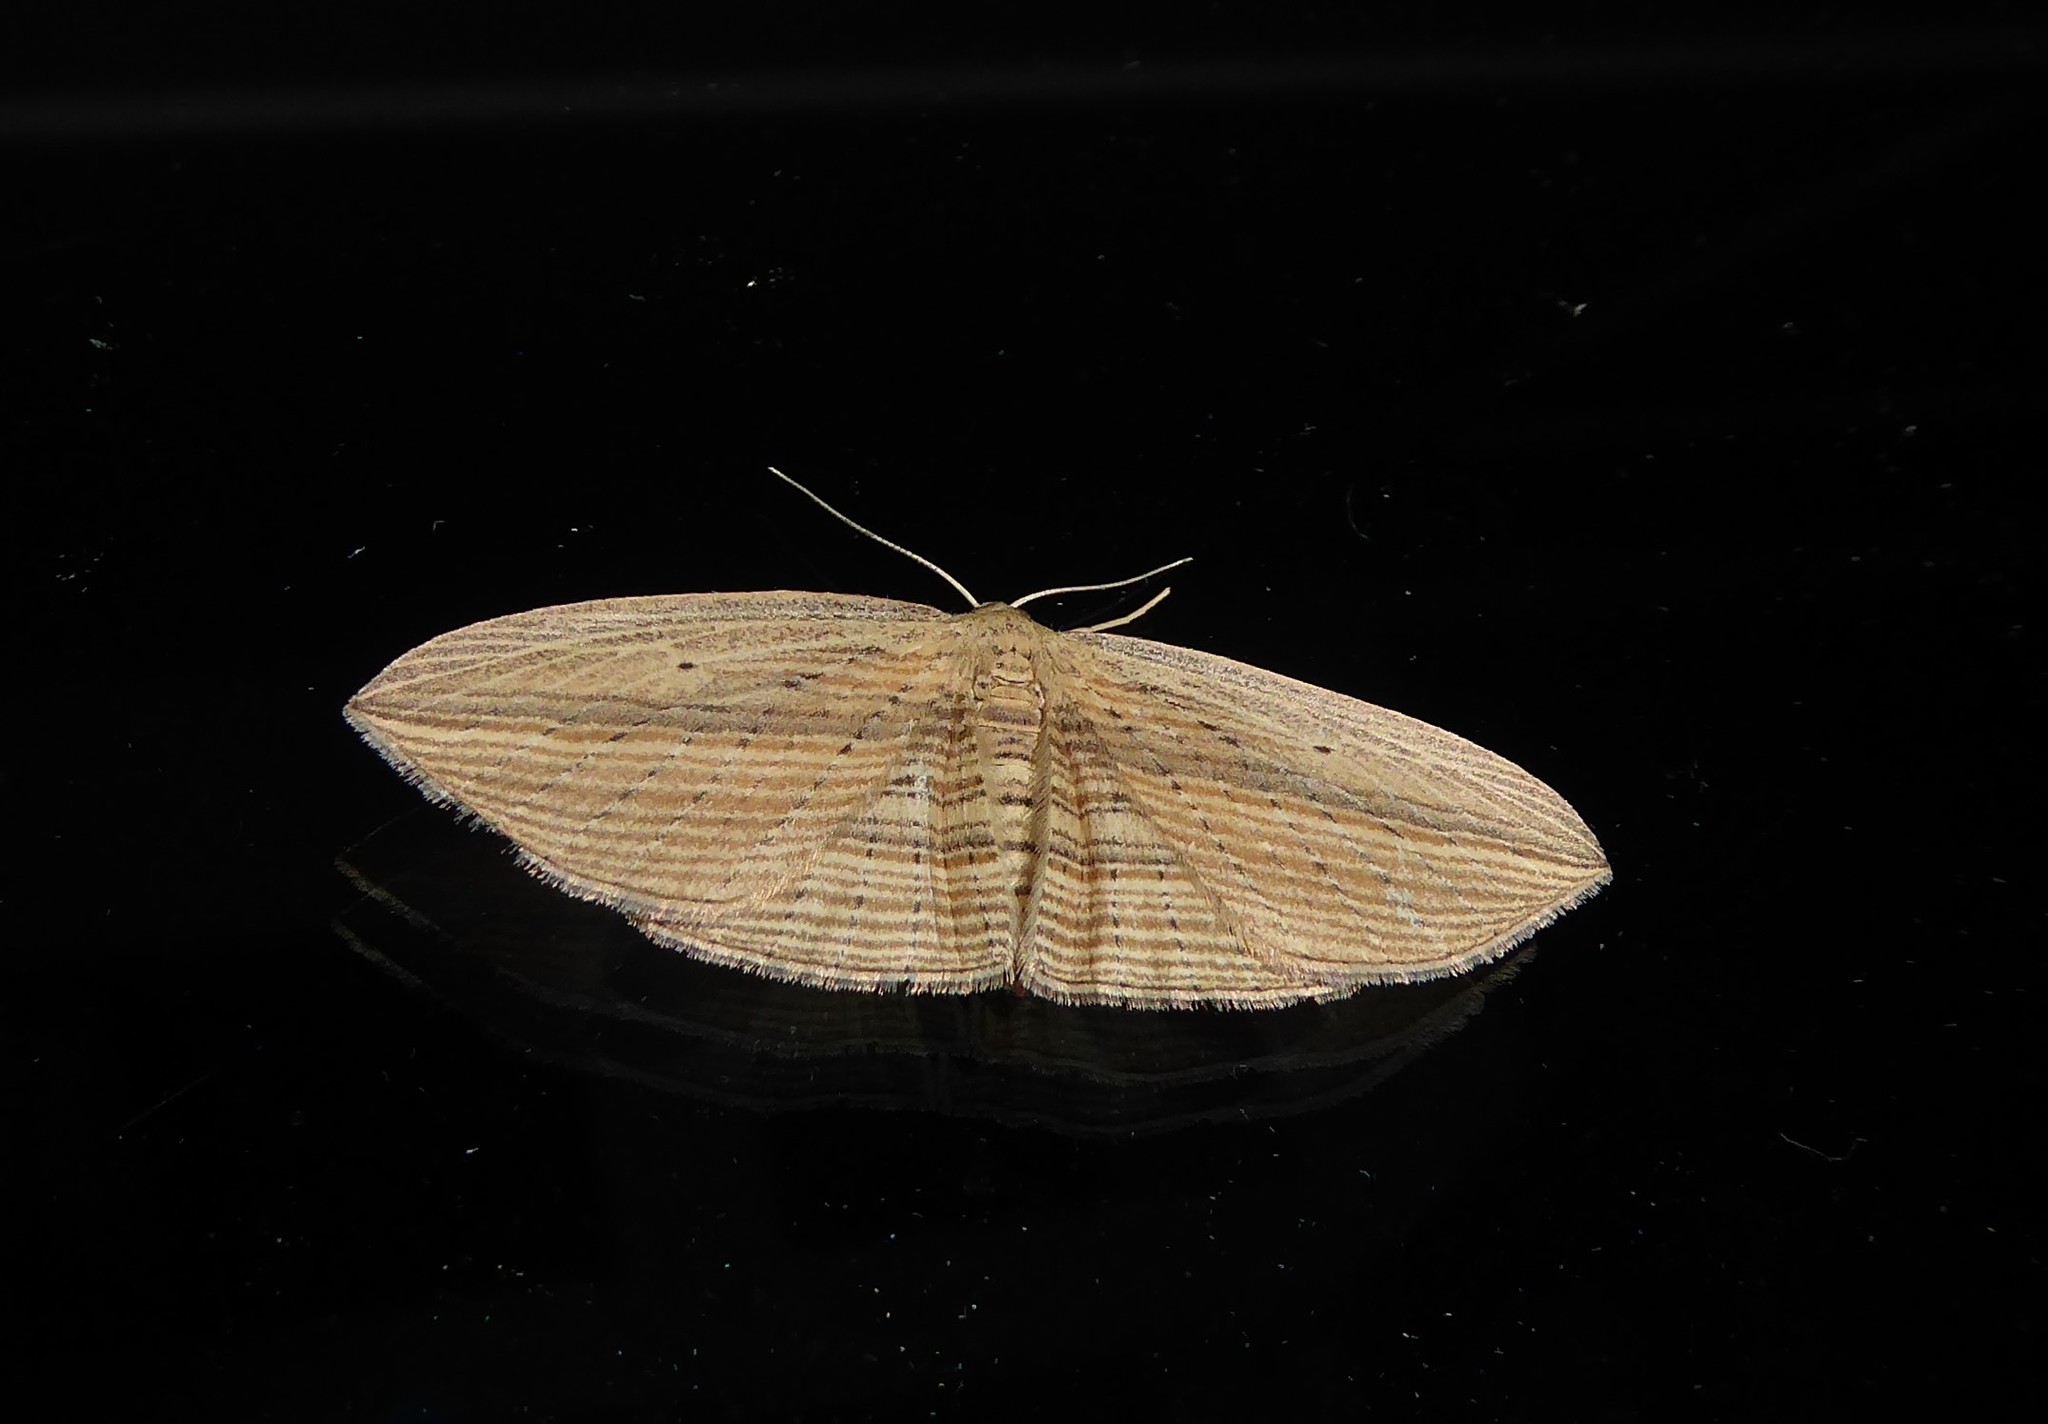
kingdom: Animalia
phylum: Arthropoda
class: Insecta
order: Lepidoptera
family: Geometridae
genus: Epiphryne
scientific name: Epiphryne verriculata
